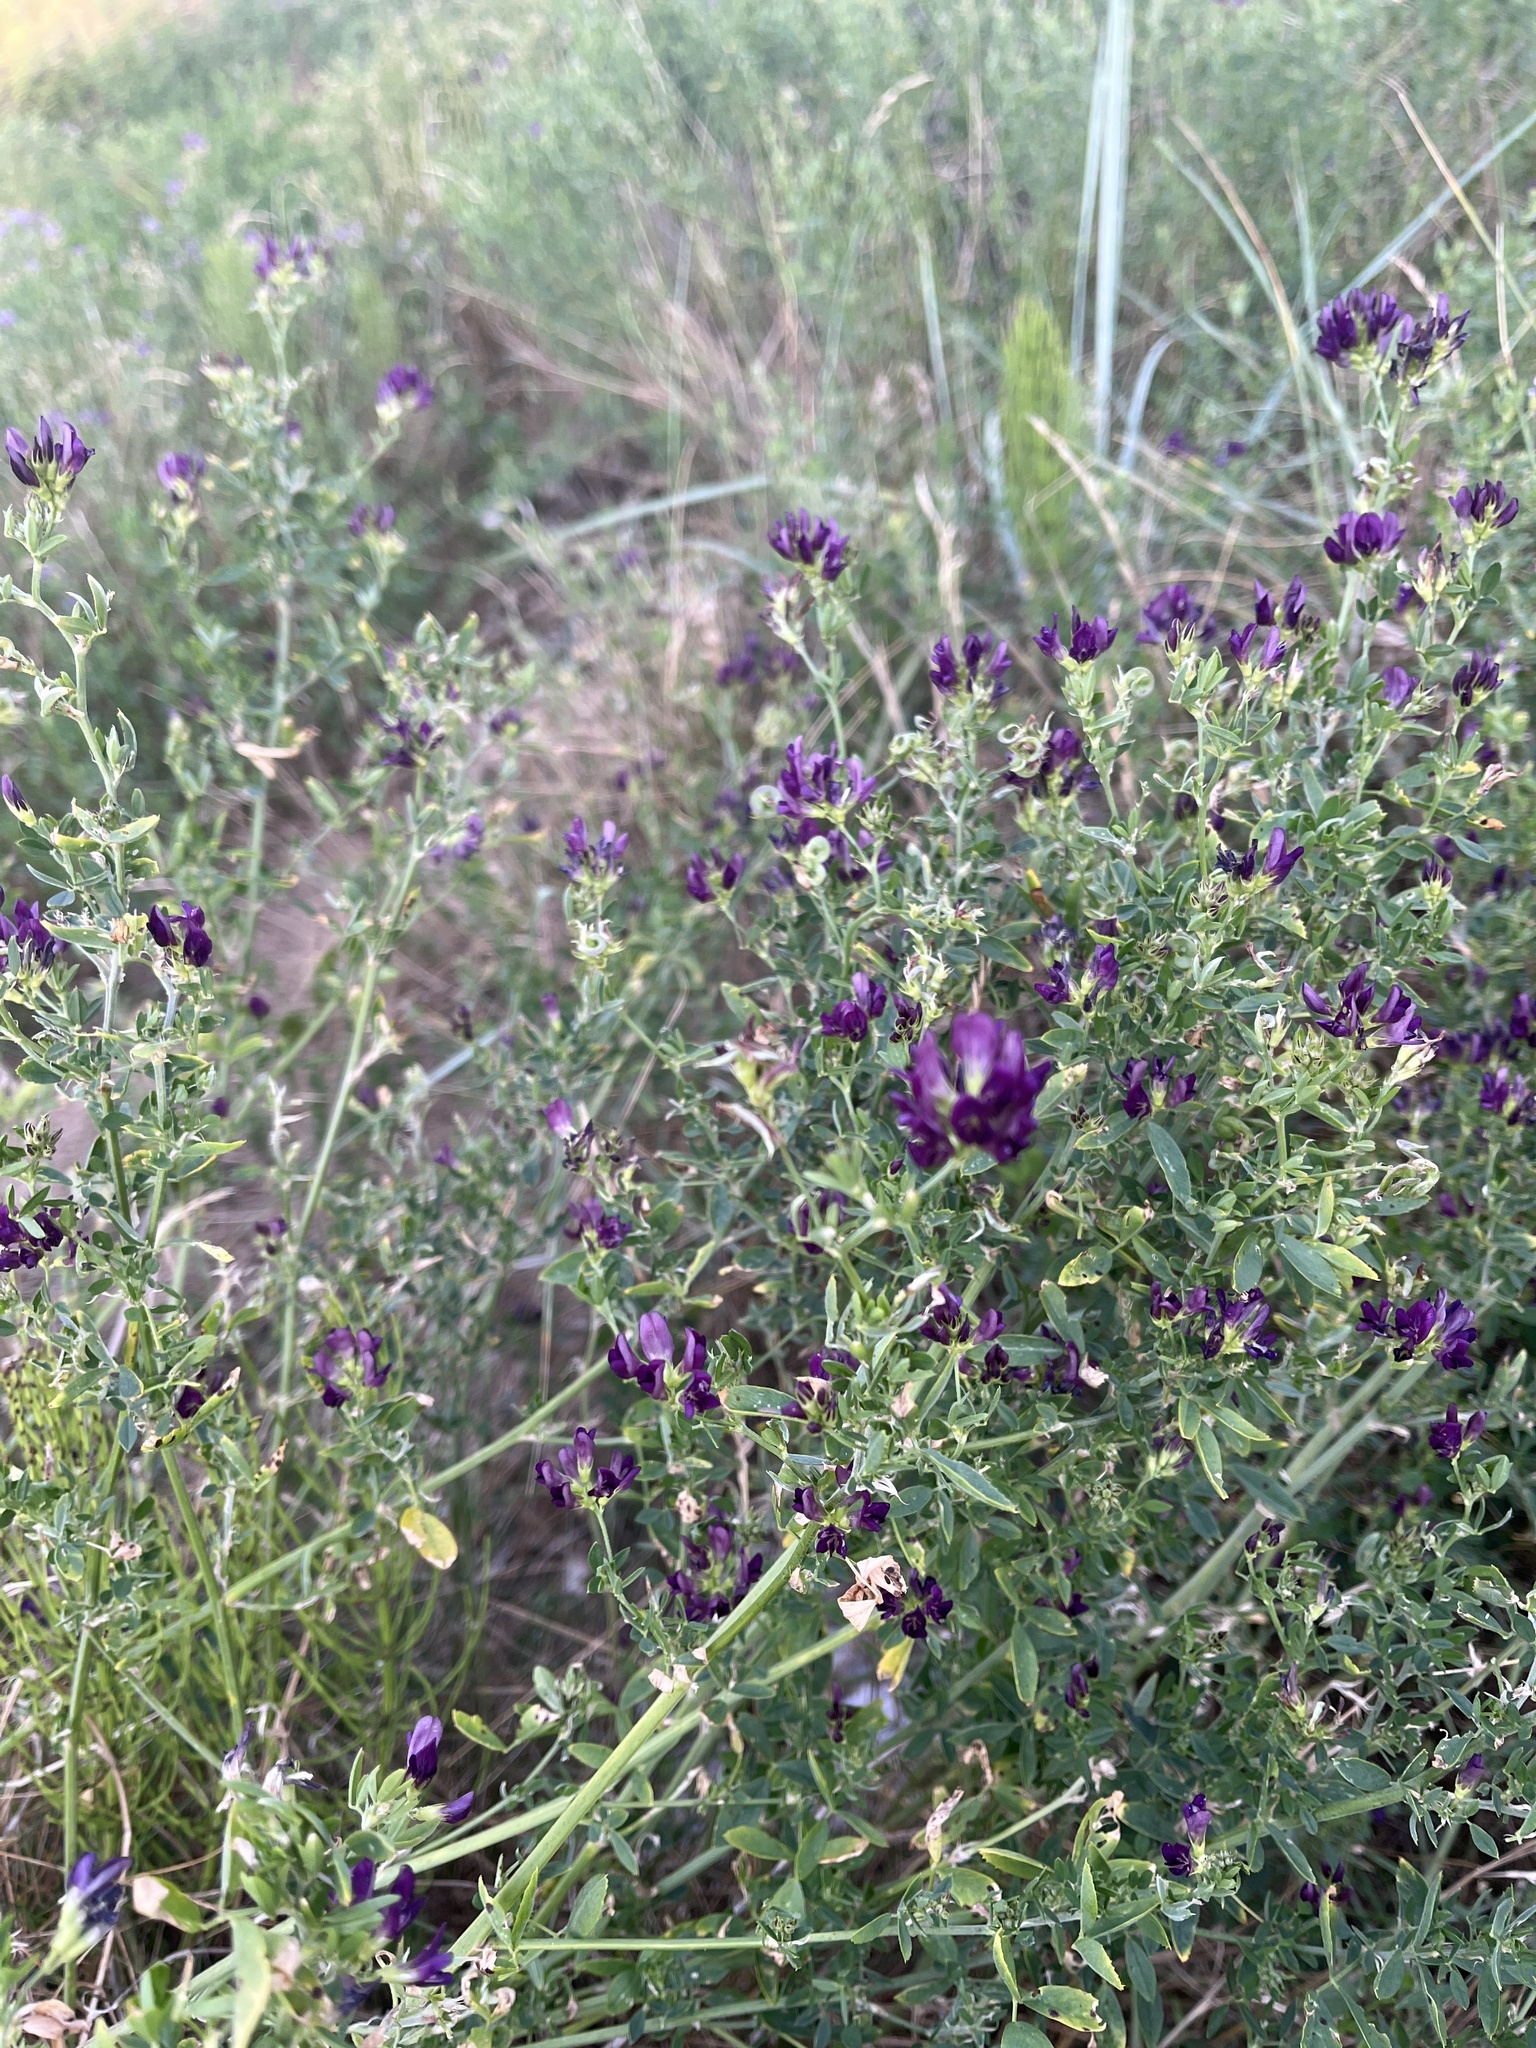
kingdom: Plantae
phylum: Tracheophyta
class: Magnoliopsida
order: Fabales
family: Fabaceae
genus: Medicago
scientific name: Medicago sativa
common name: Alfalfa
